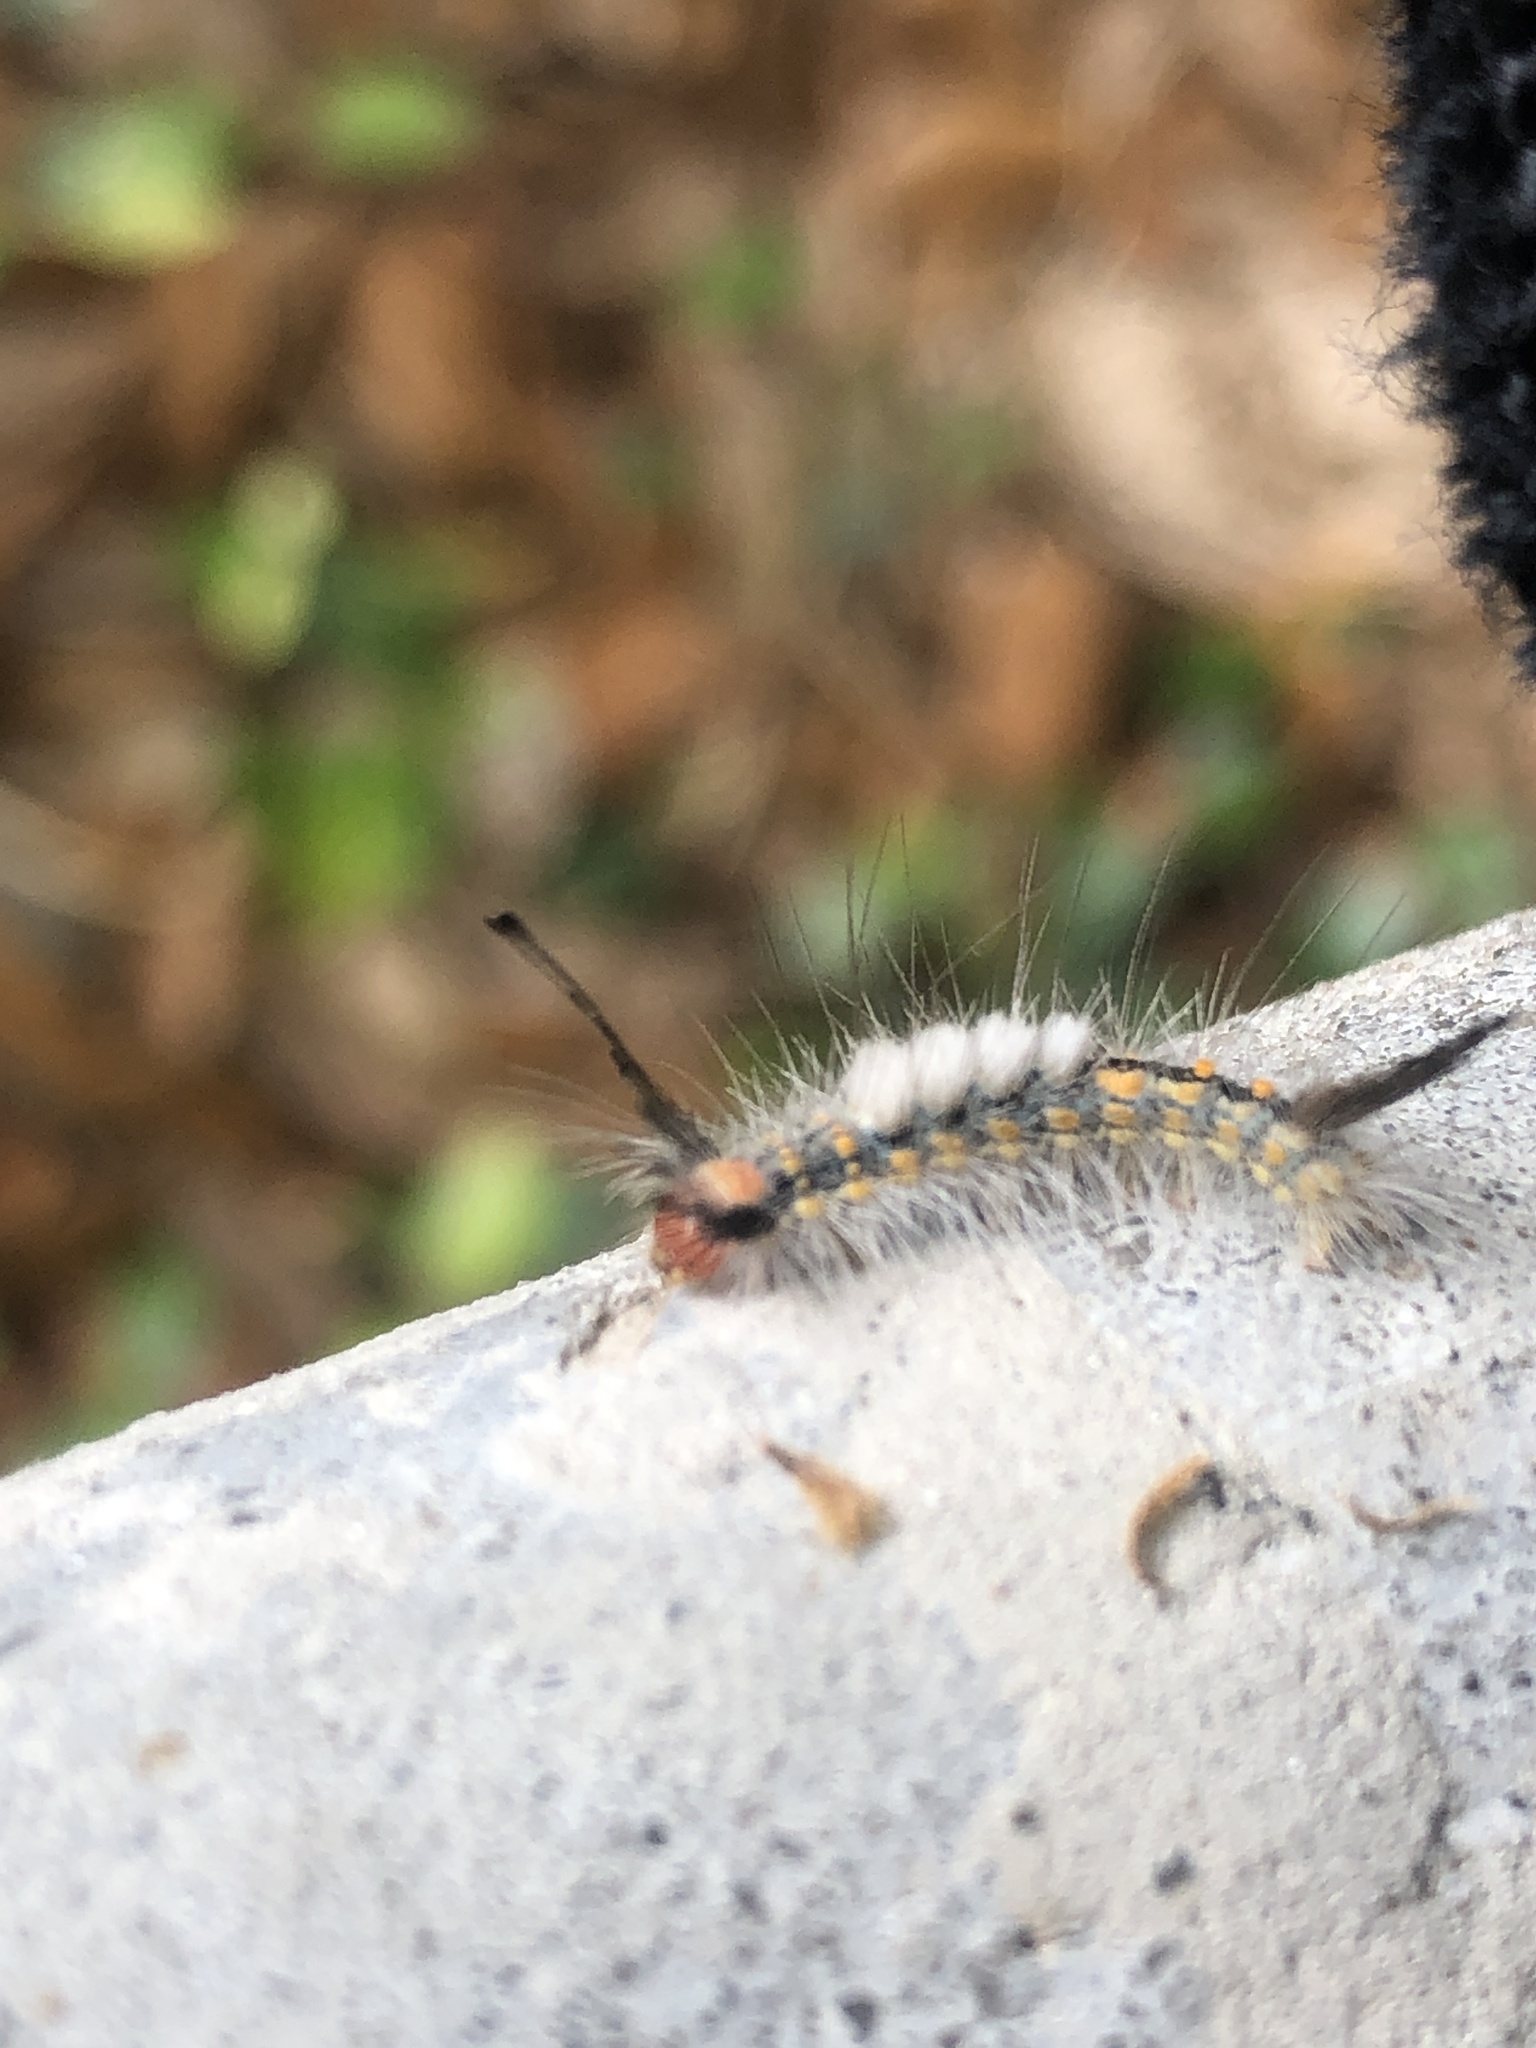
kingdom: Animalia
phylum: Arthropoda
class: Insecta
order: Lepidoptera
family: Erebidae
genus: Orgyia
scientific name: Orgyia detrita
